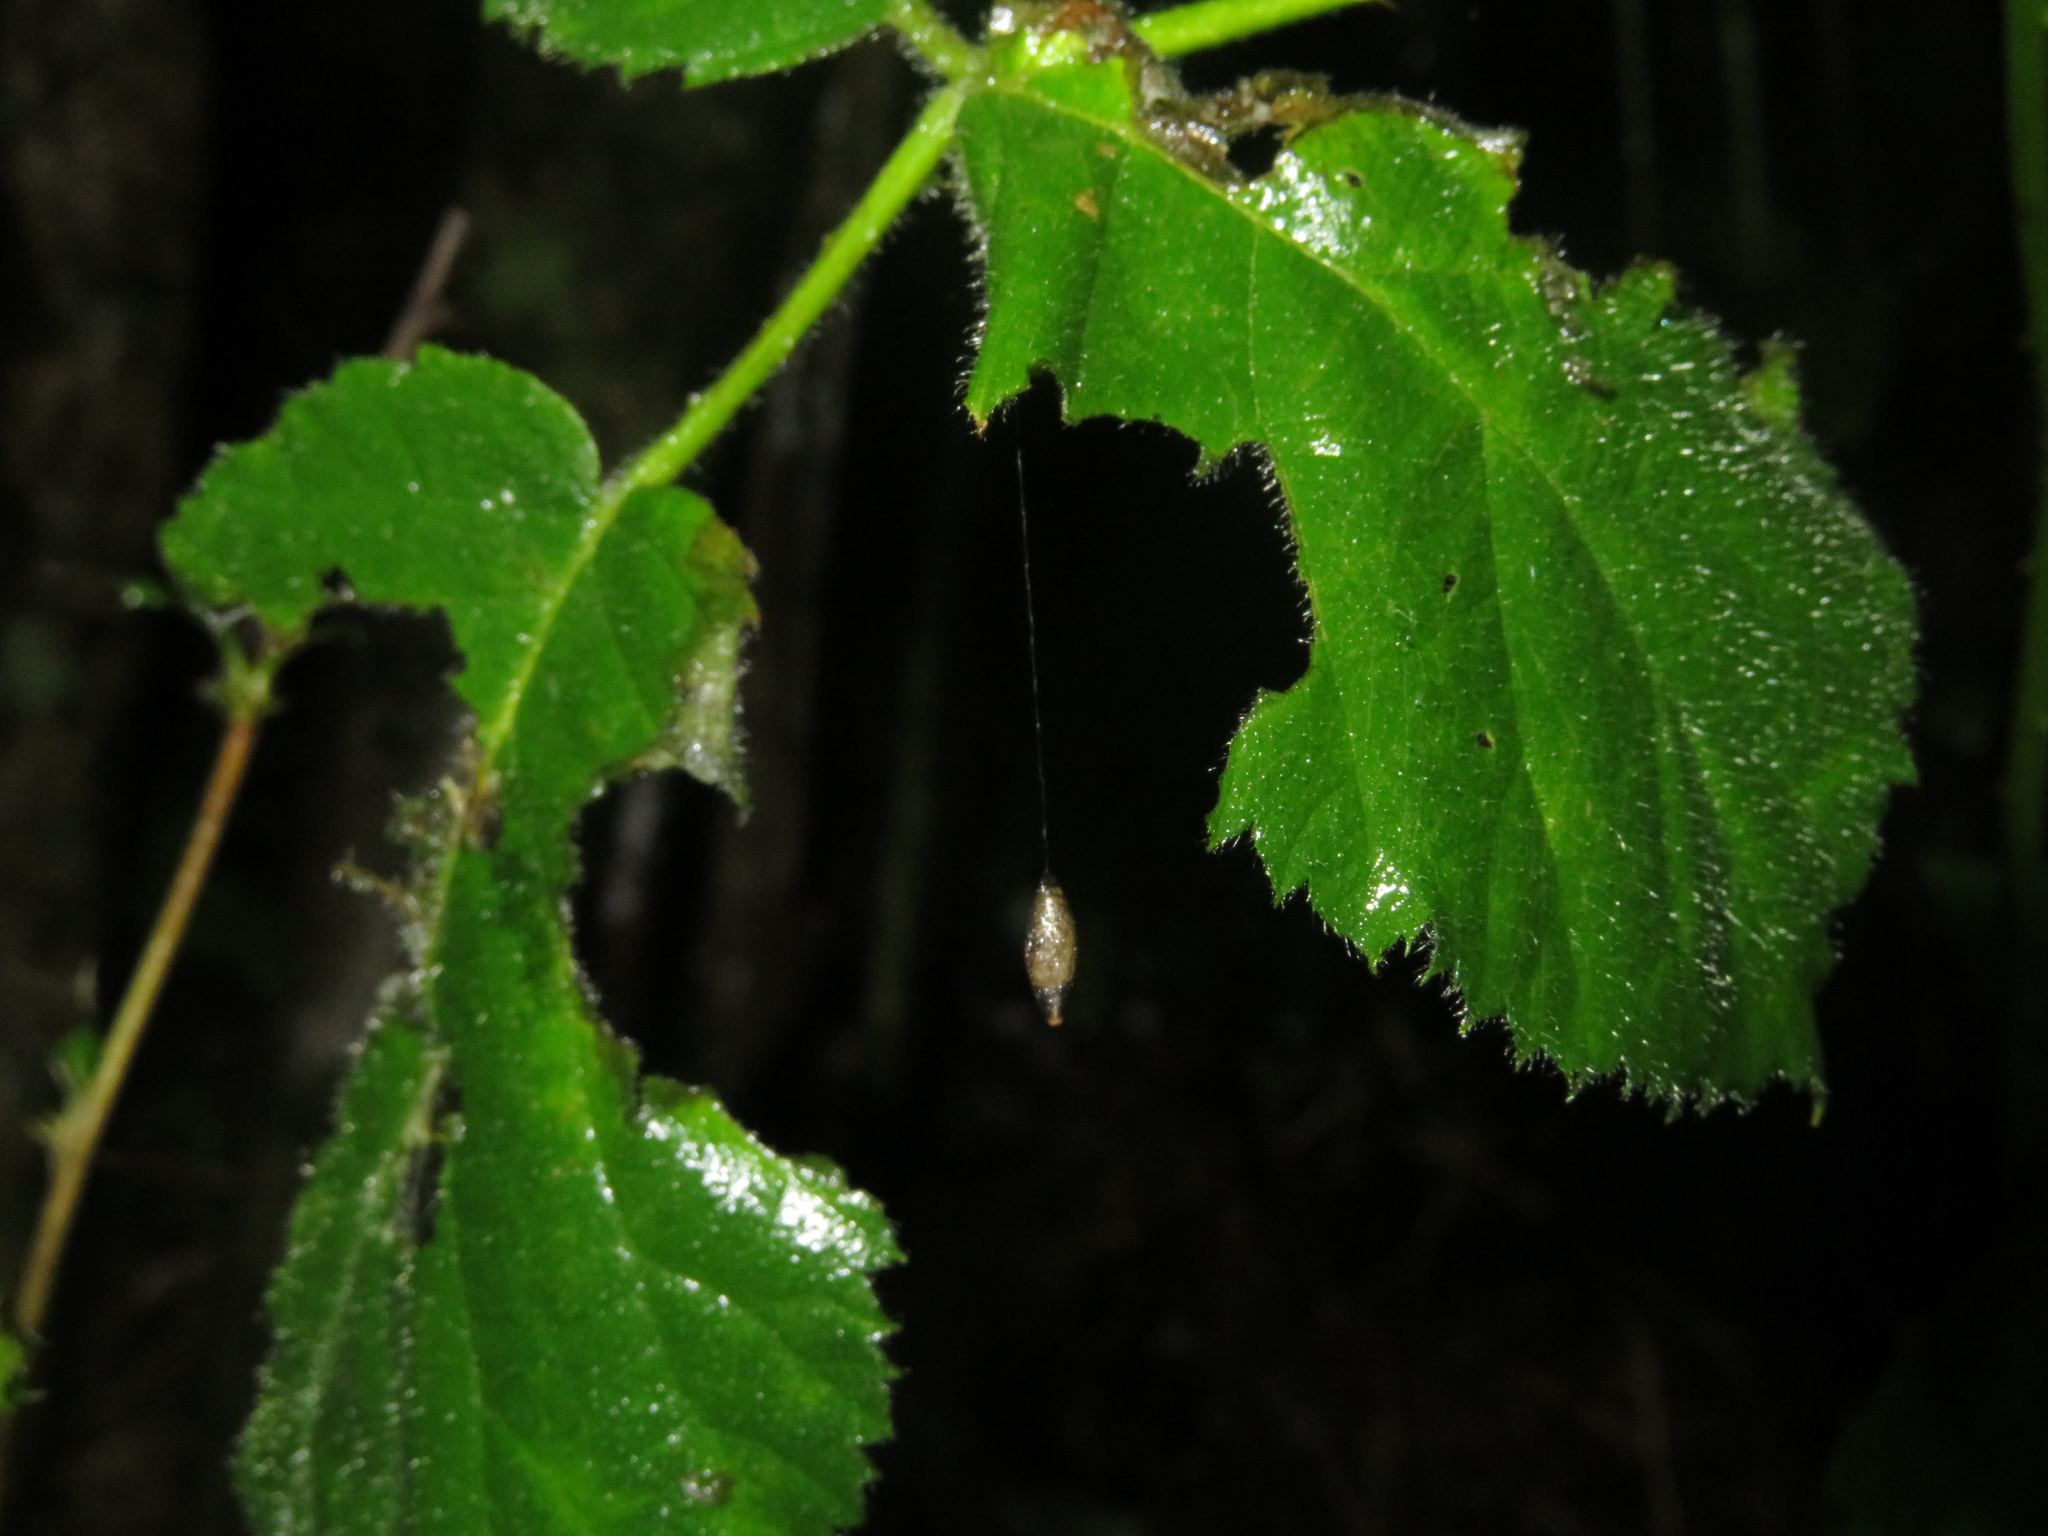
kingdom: Animalia
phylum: Arthropoda
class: Insecta
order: Hymenoptera
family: Braconidae
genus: Meteorus
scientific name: Meteorus pulchricornis
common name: Braconid wasp
